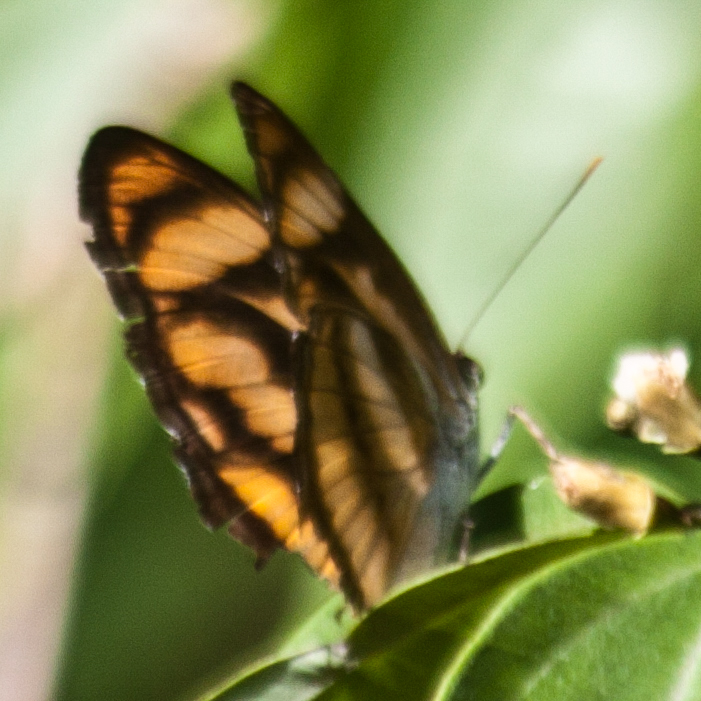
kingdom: Animalia
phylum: Arthropoda
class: Insecta
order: Lepidoptera
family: Nymphalidae
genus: Parathyma
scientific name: Parathyma nefte
